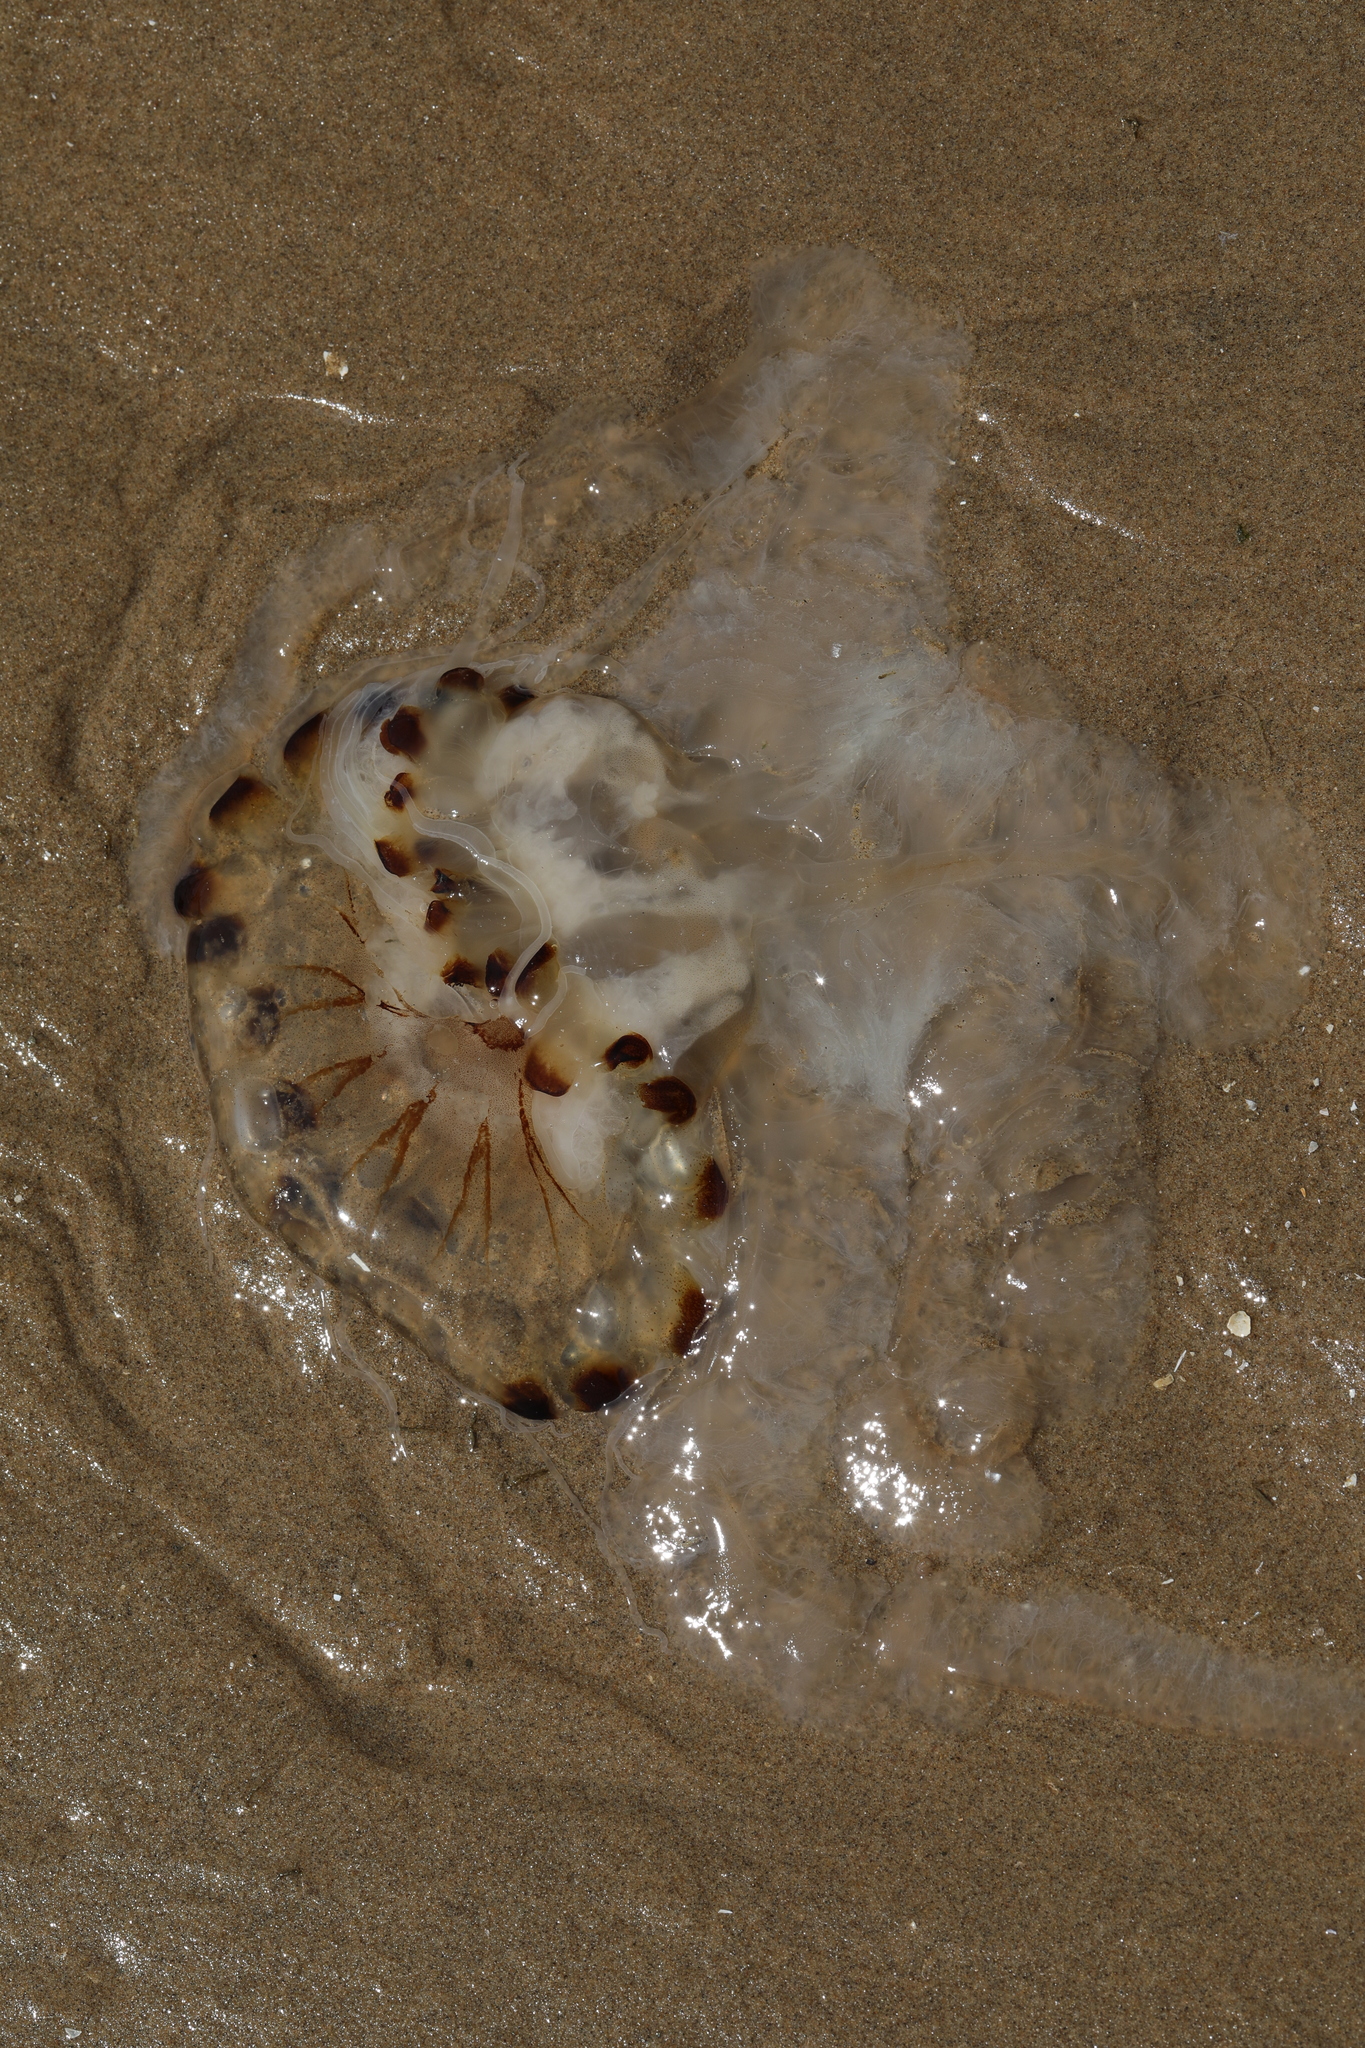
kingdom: Animalia
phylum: Cnidaria
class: Scyphozoa
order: Semaeostomeae
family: Pelagiidae
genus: Chrysaora
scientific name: Chrysaora hysoscella
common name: Compass jellyfish
